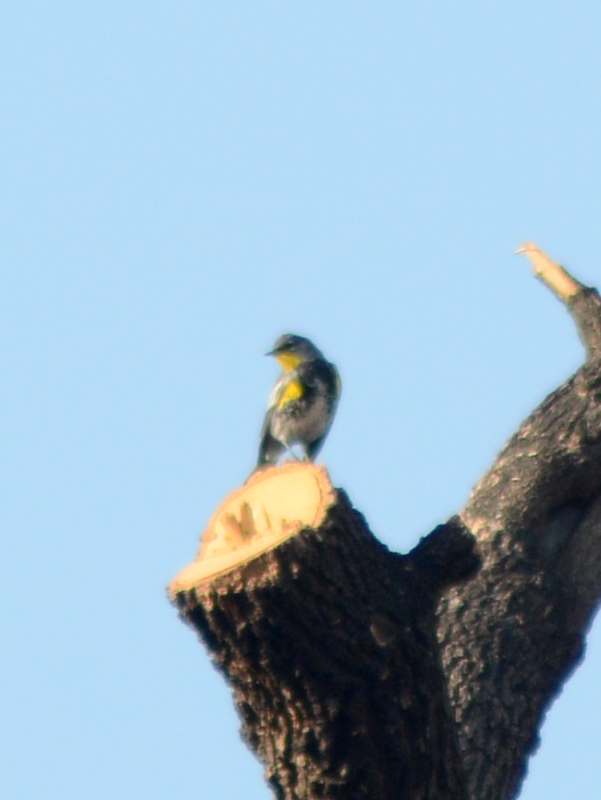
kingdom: Animalia
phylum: Chordata
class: Aves
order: Passeriformes
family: Parulidae
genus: Setophaga
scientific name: Setophaga coronata
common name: Myrtle warbler
